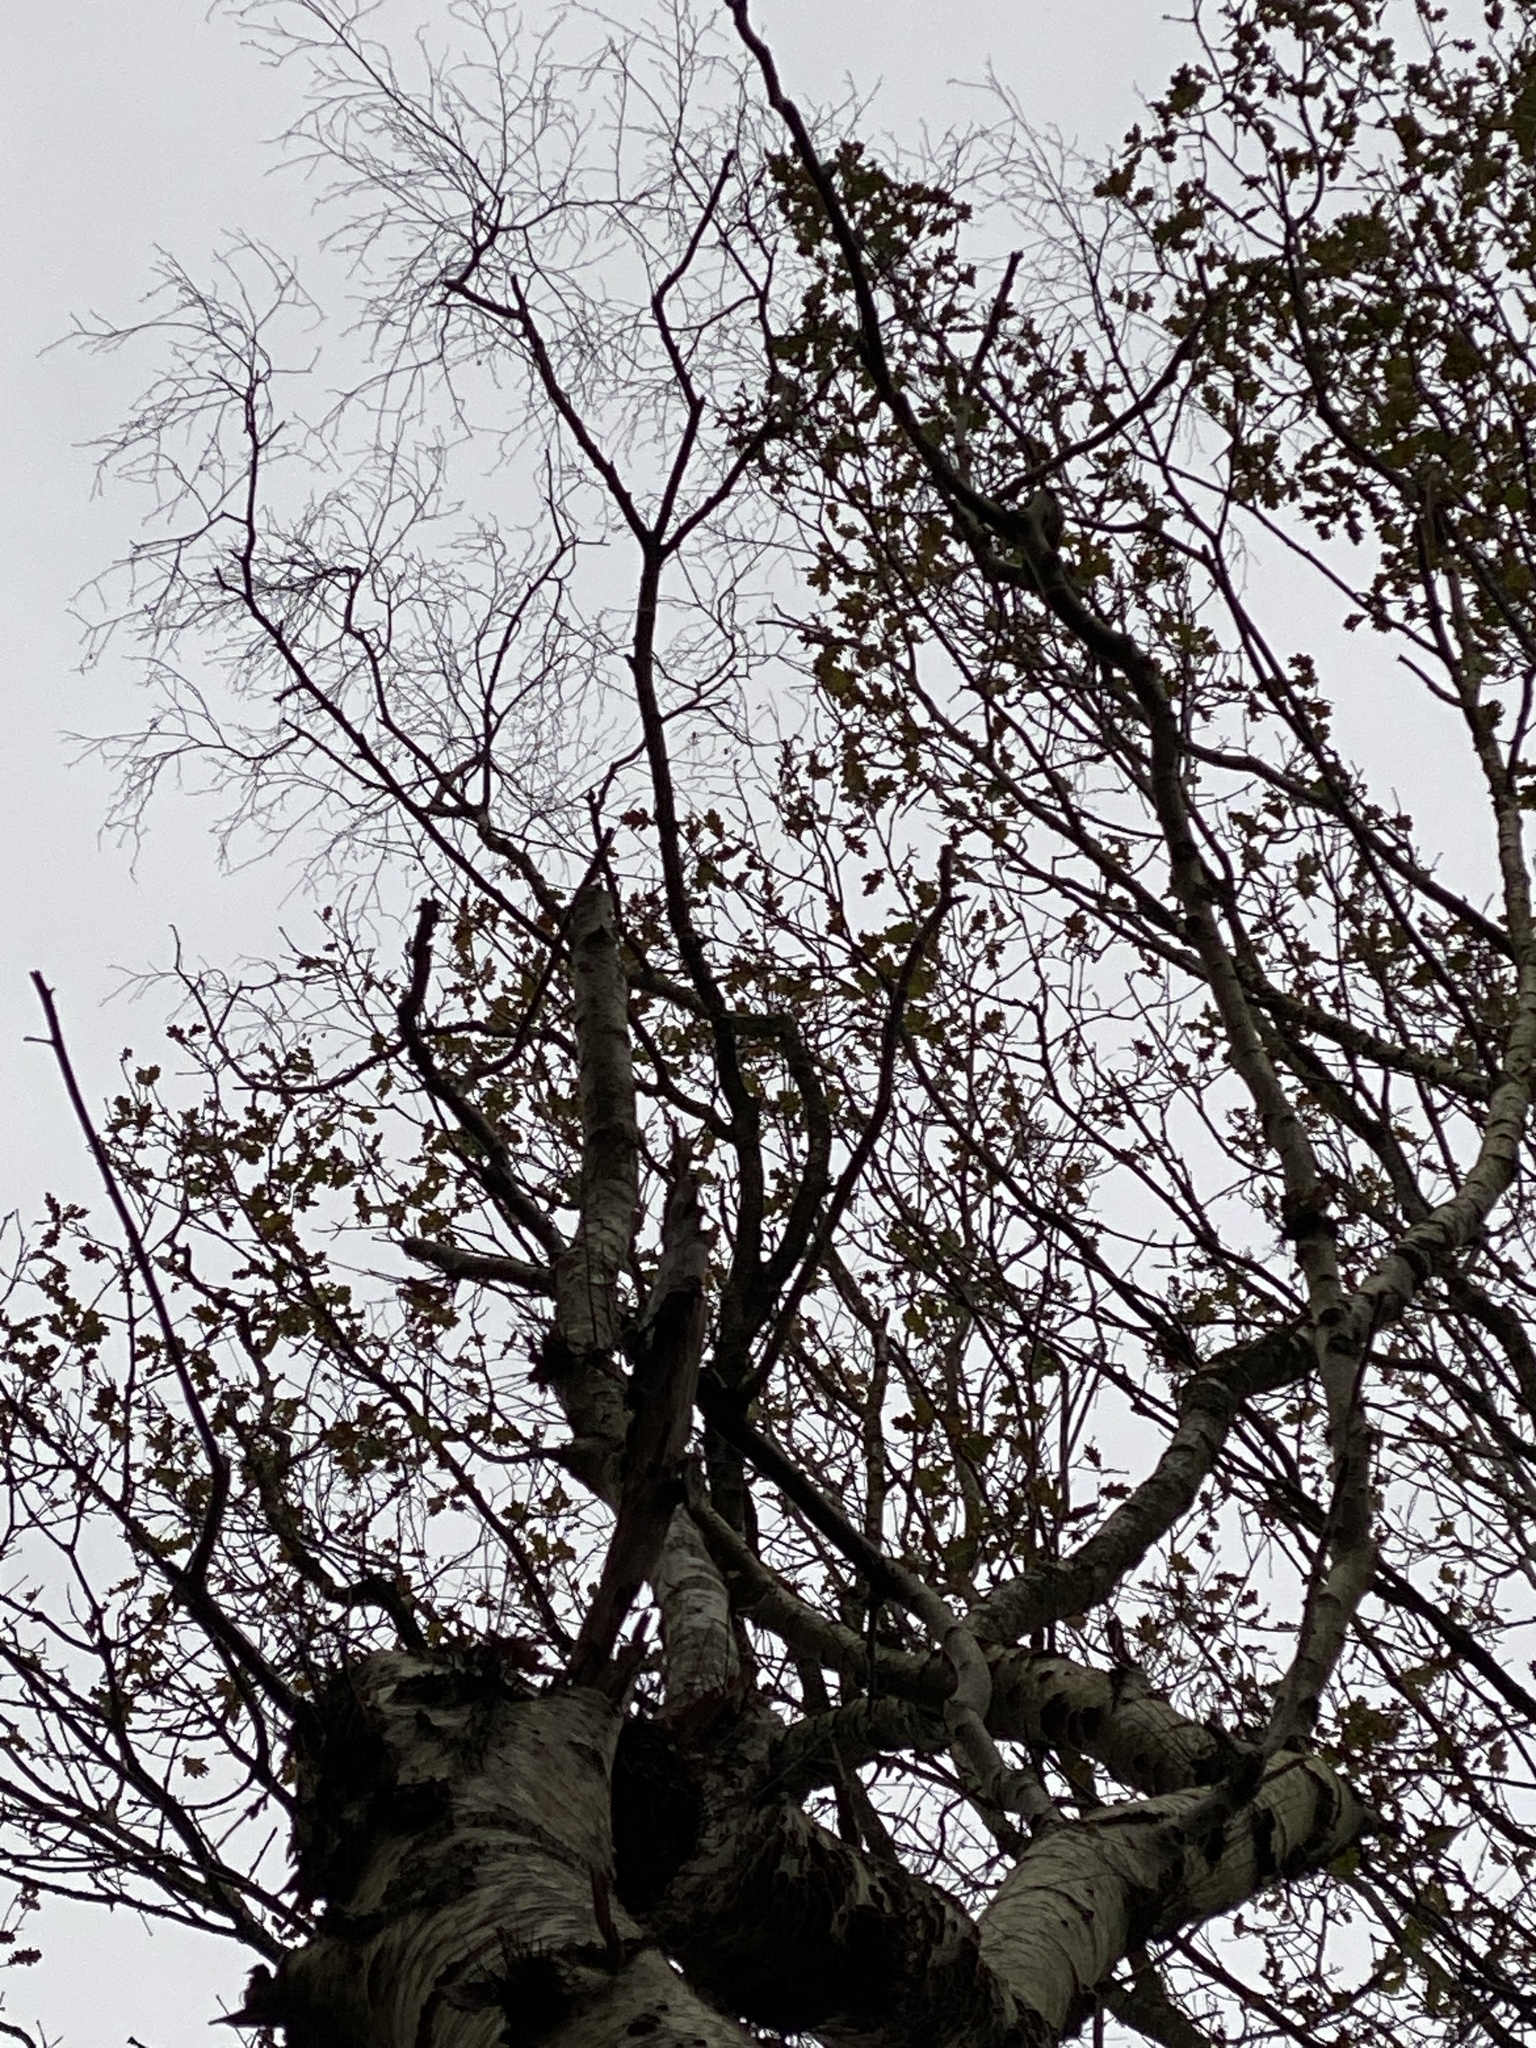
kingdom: Plantae
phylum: Tracheophyta
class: Magnoliopsida
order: Fagales
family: Betulaceae
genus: Betula
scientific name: Betula pendula
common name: Silver birch
